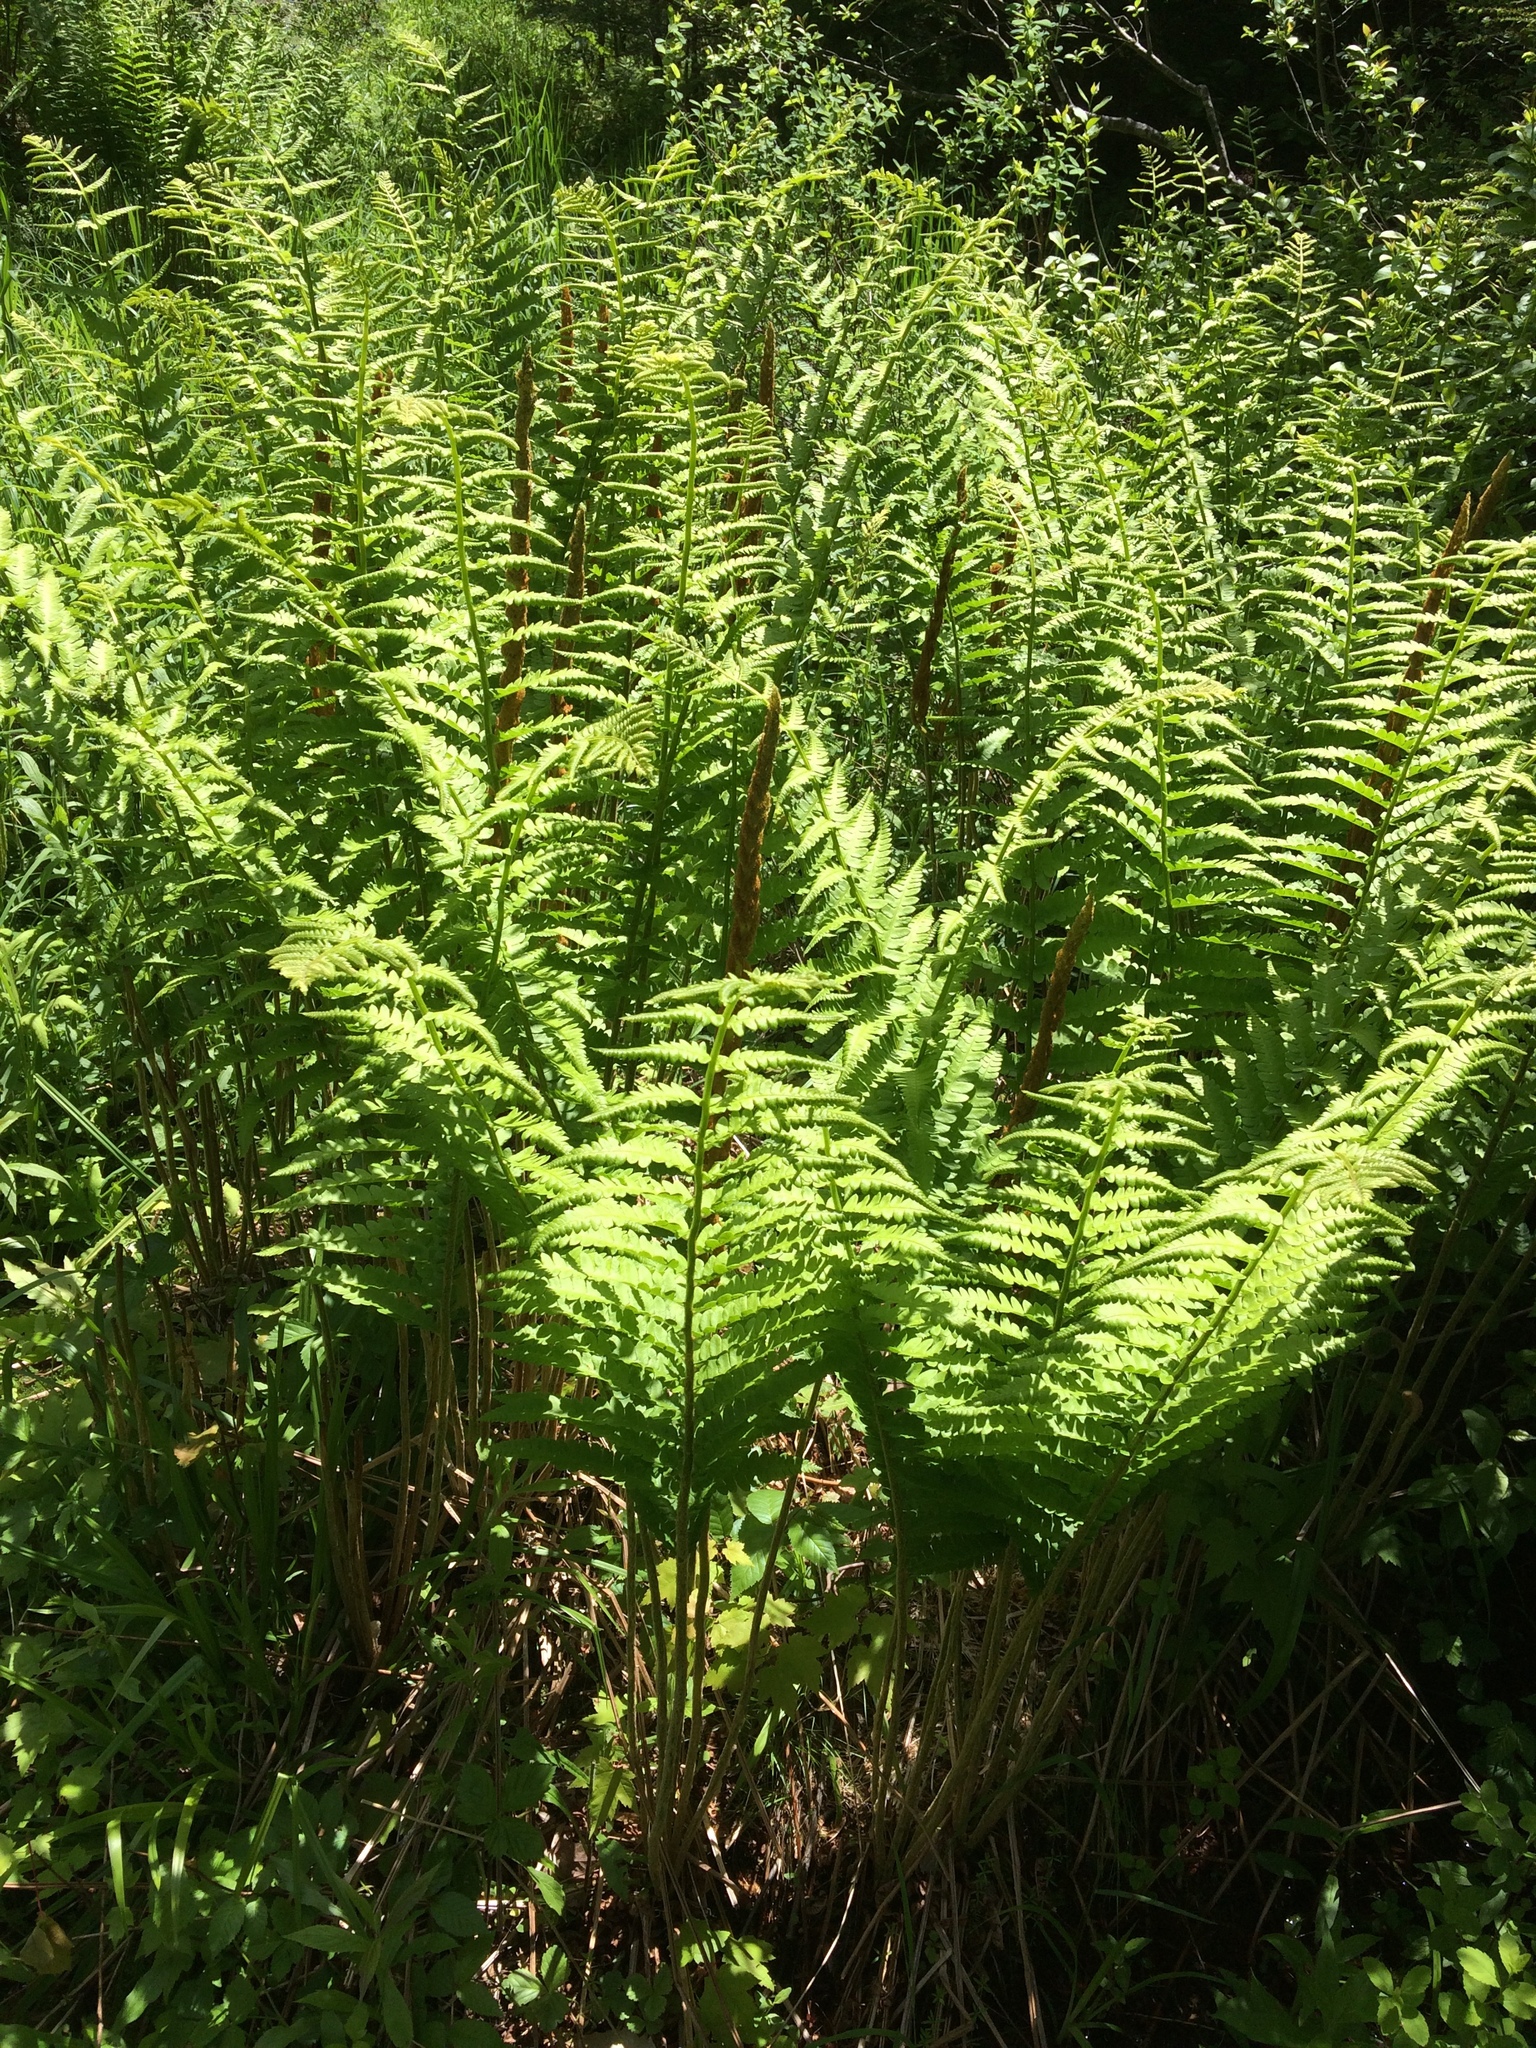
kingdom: Plantae
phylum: Tracheophyta
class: Polypodiopsida
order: Osmundales
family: Osmundaceae
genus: Osmundastrum
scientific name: Osmundastrum cinnamomeum
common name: Cinnamon fern
